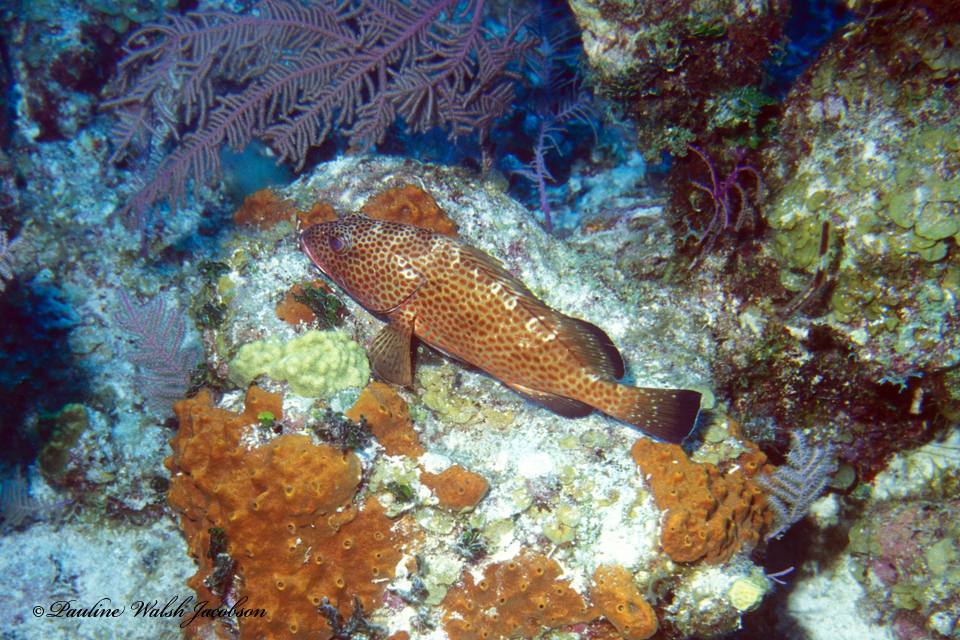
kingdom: Animalia
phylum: Chordata
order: Perciformes
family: Serranidae
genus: Epinephelus
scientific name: Epinephelus guttatus
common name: Red hind
